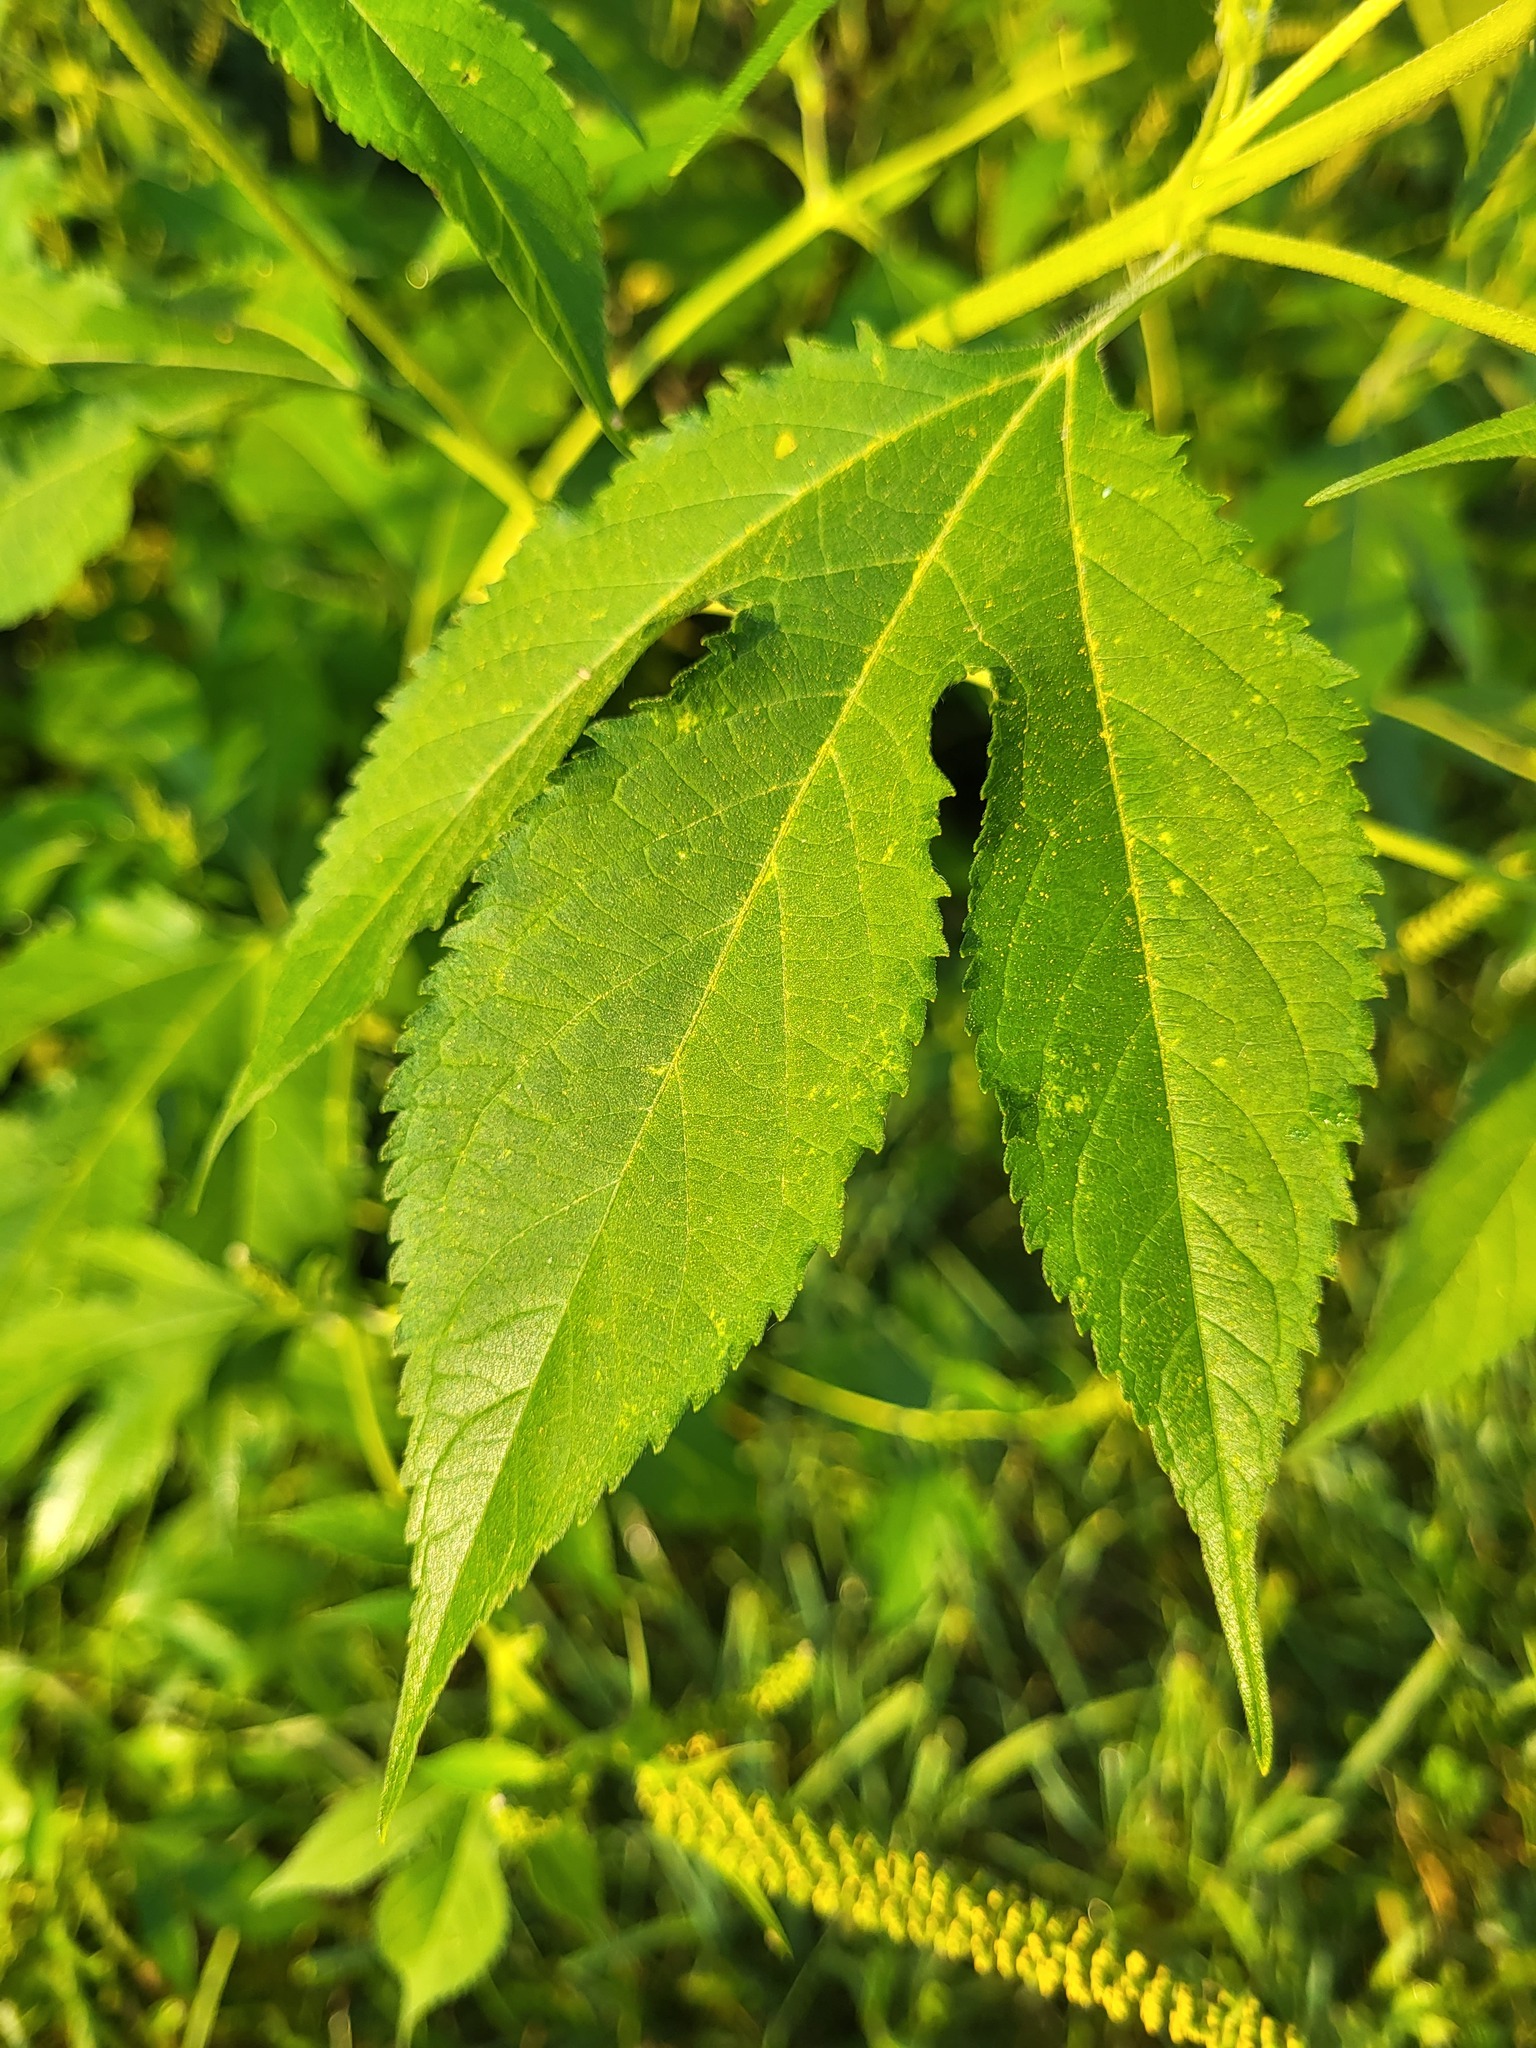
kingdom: Plantae
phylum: Tracheophyta
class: Magnoliopsida
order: Asterales
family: Asteraceae
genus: Ambrosia
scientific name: Ambrosia trifida
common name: Giant ragweed
